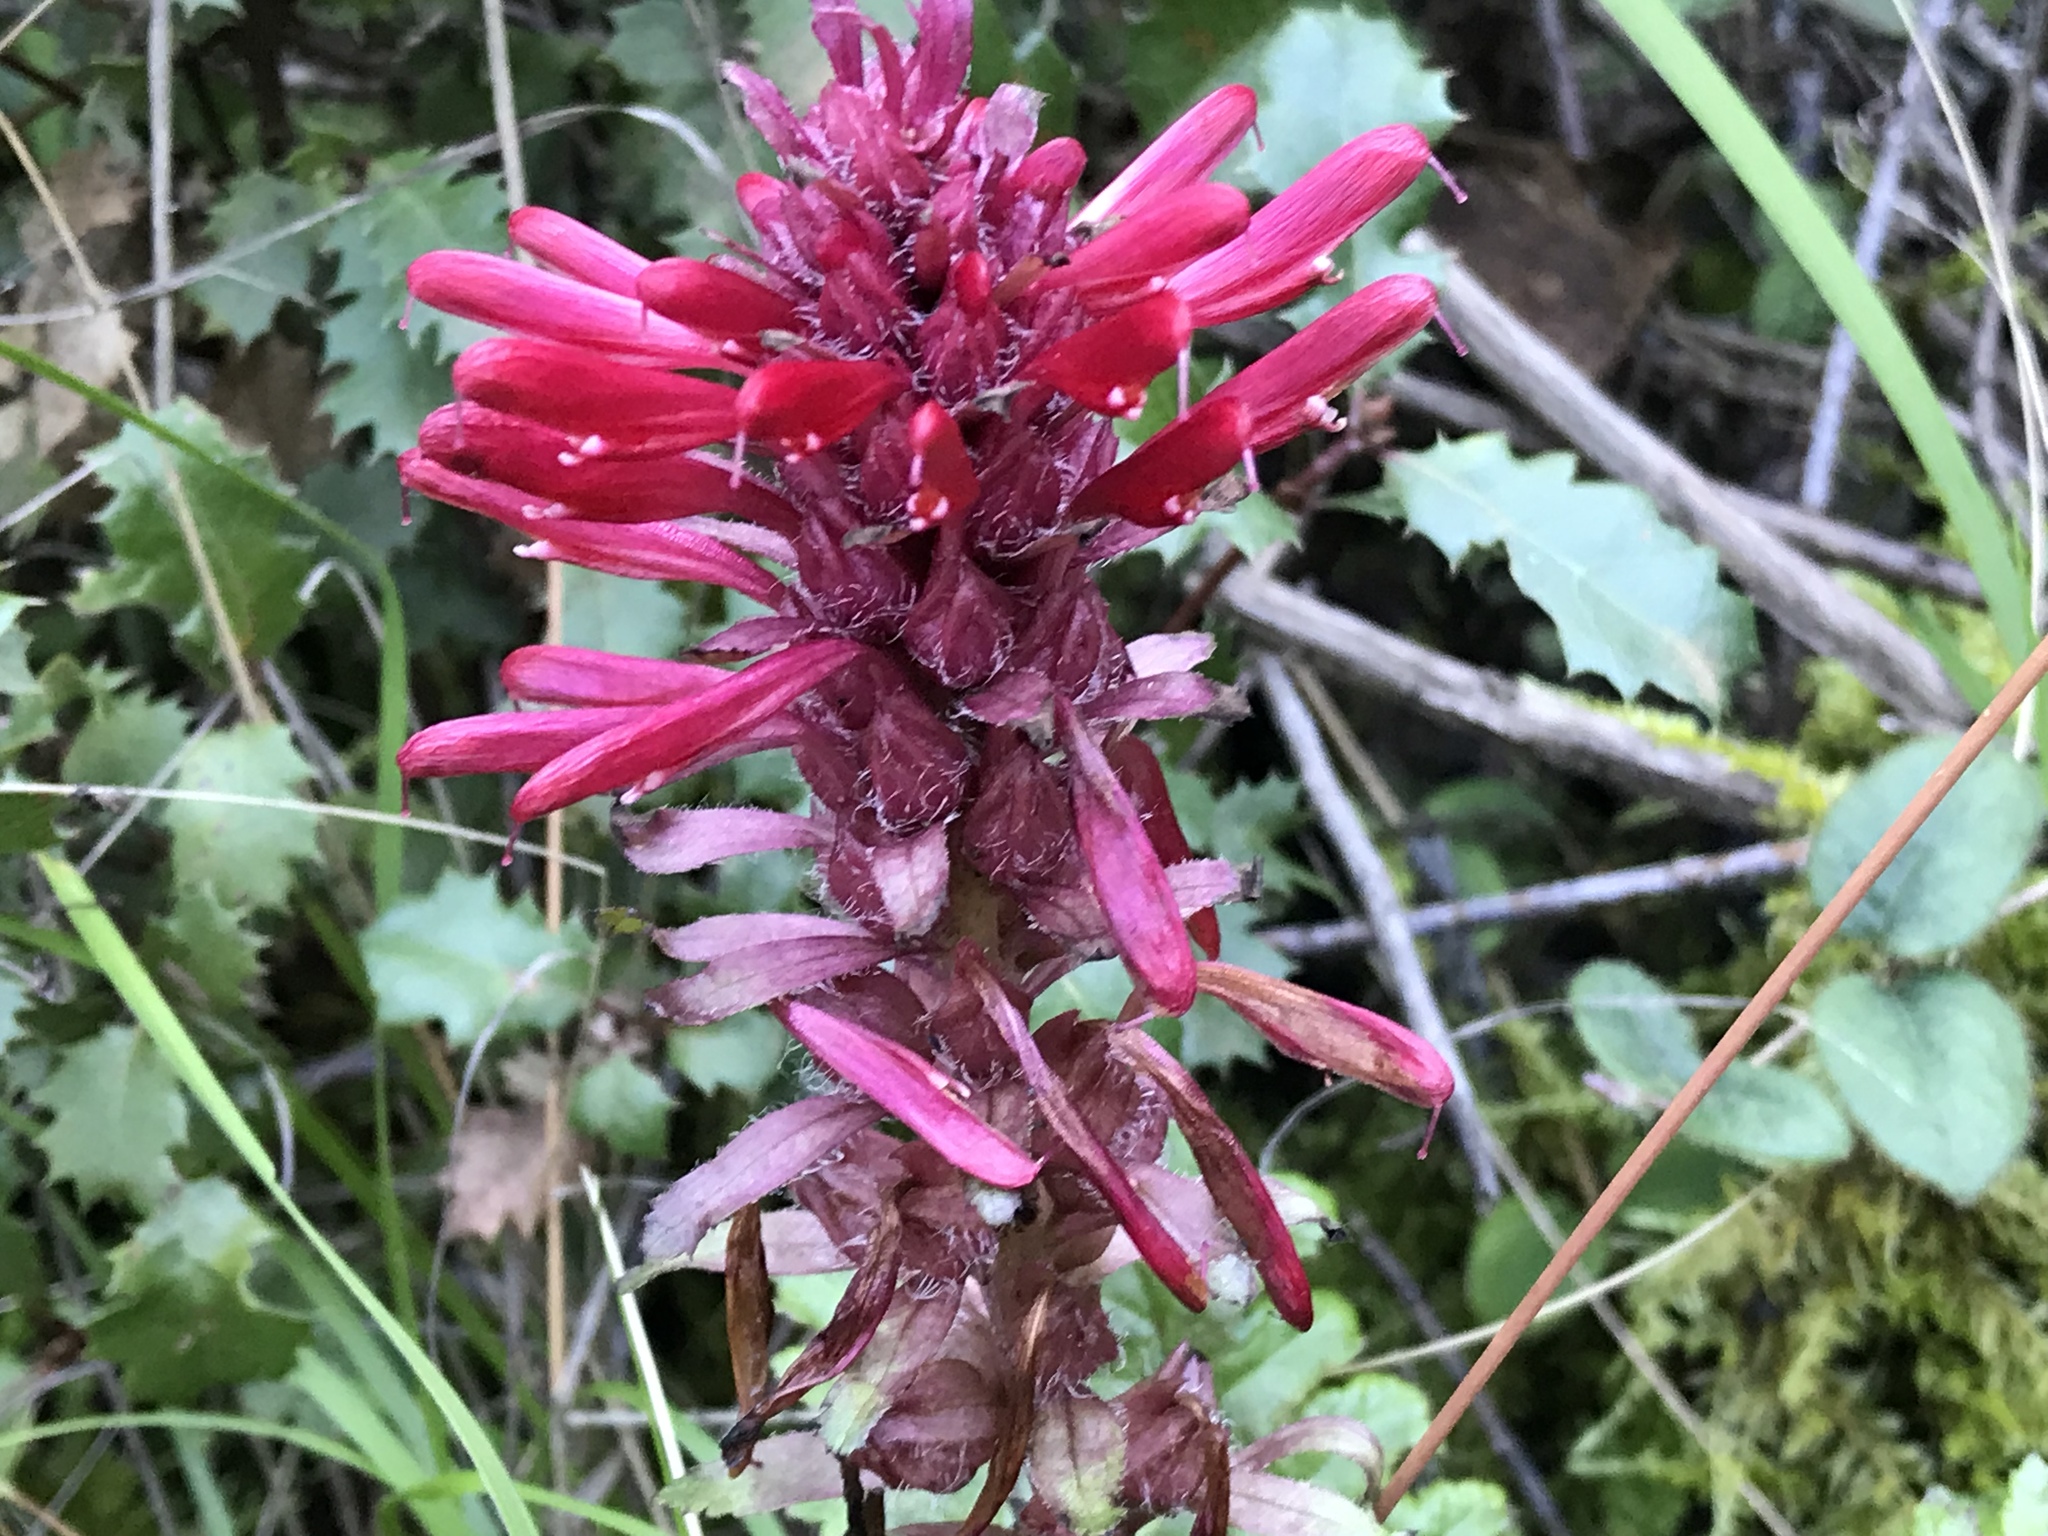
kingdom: Plantae
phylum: Tracheophyta
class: Magnoliopsida
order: Lamiales
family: Orobanchaceae
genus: Pedicularis
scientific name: Pedicularis densiflora
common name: Indian warrior
